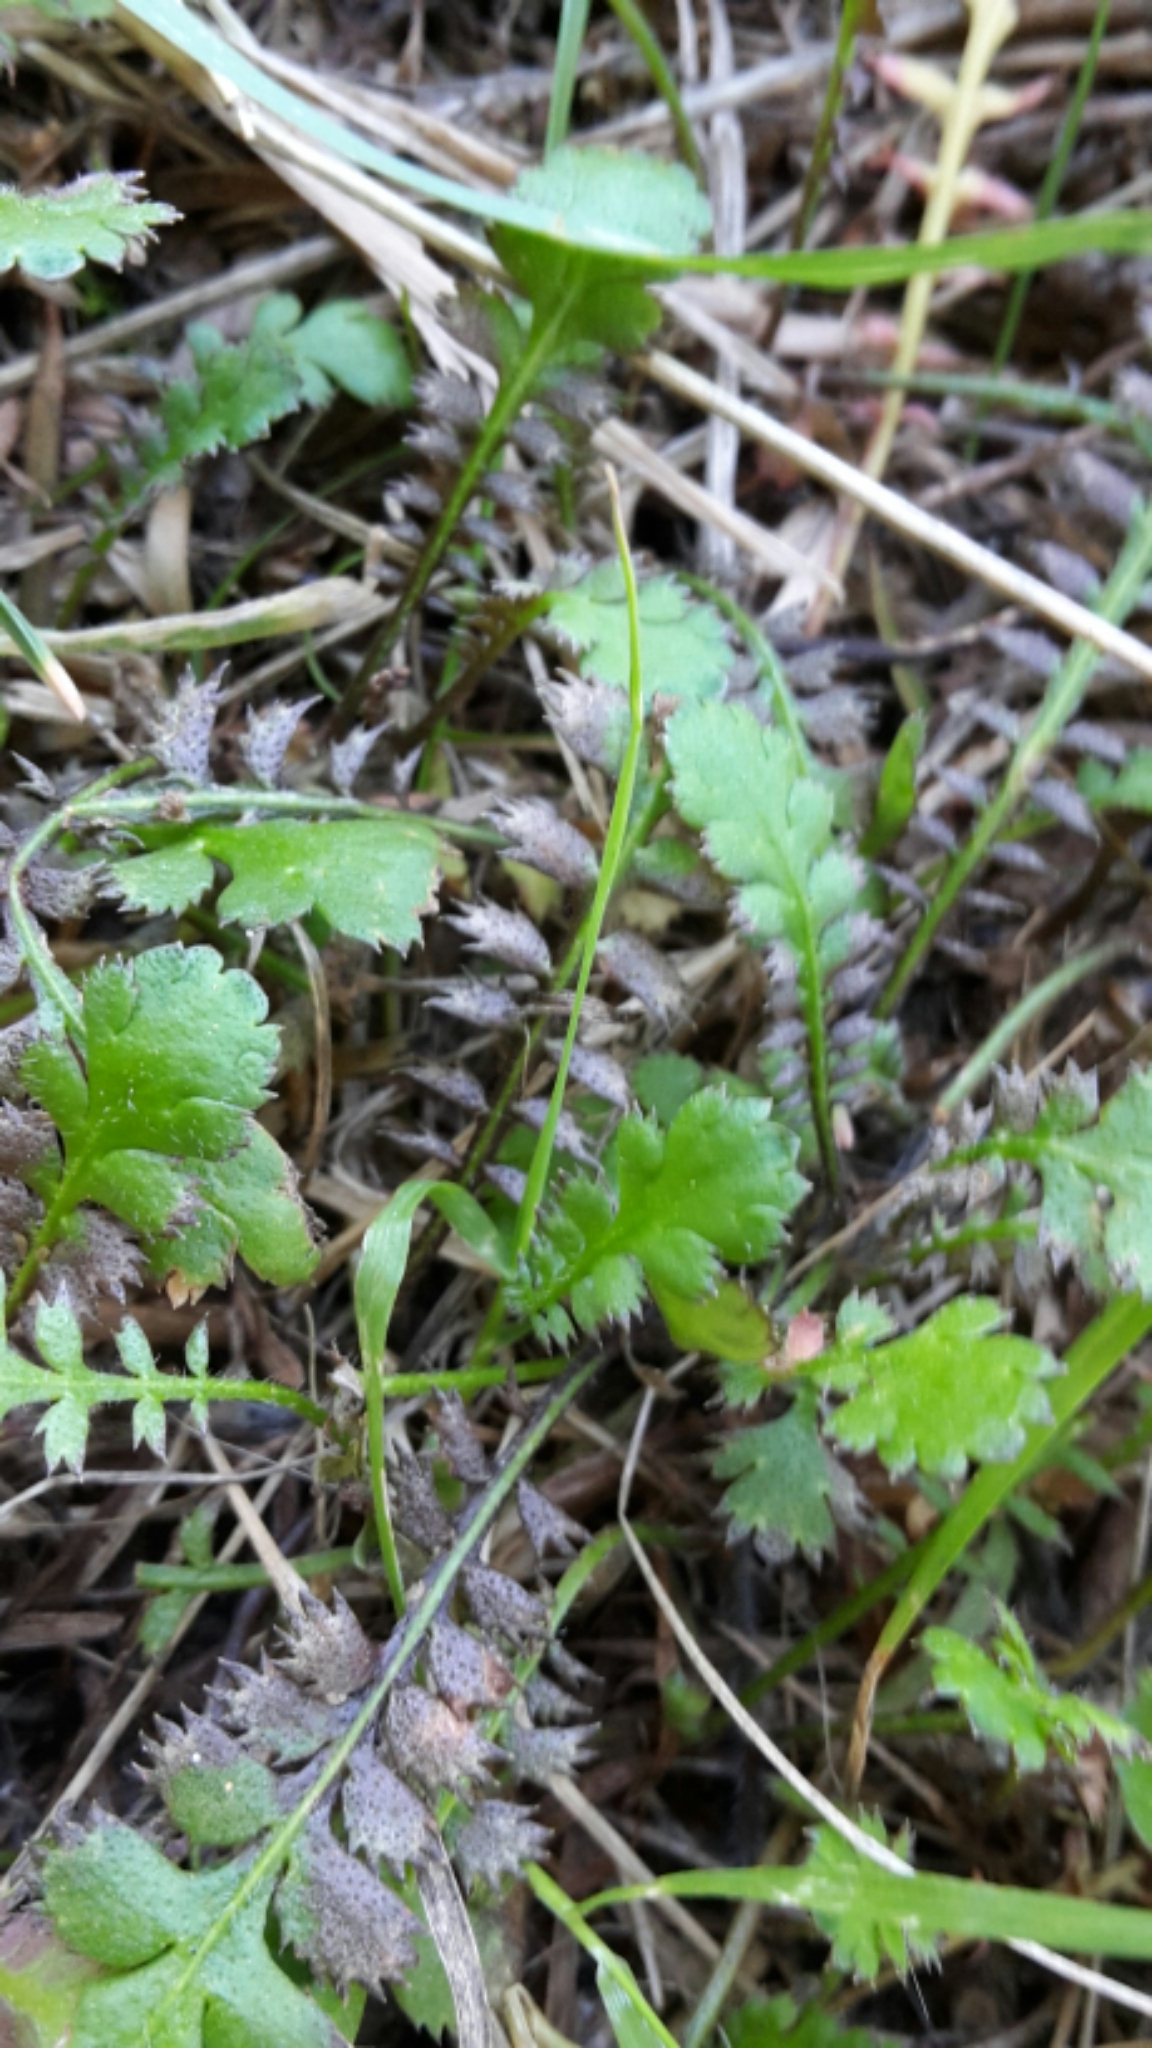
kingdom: Plantae
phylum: Tracheophyta
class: Magnoliopsida
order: Asterales
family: Asteraceae
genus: Leptinella
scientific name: Leptinella squalida
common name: New zealand brass-buttons
